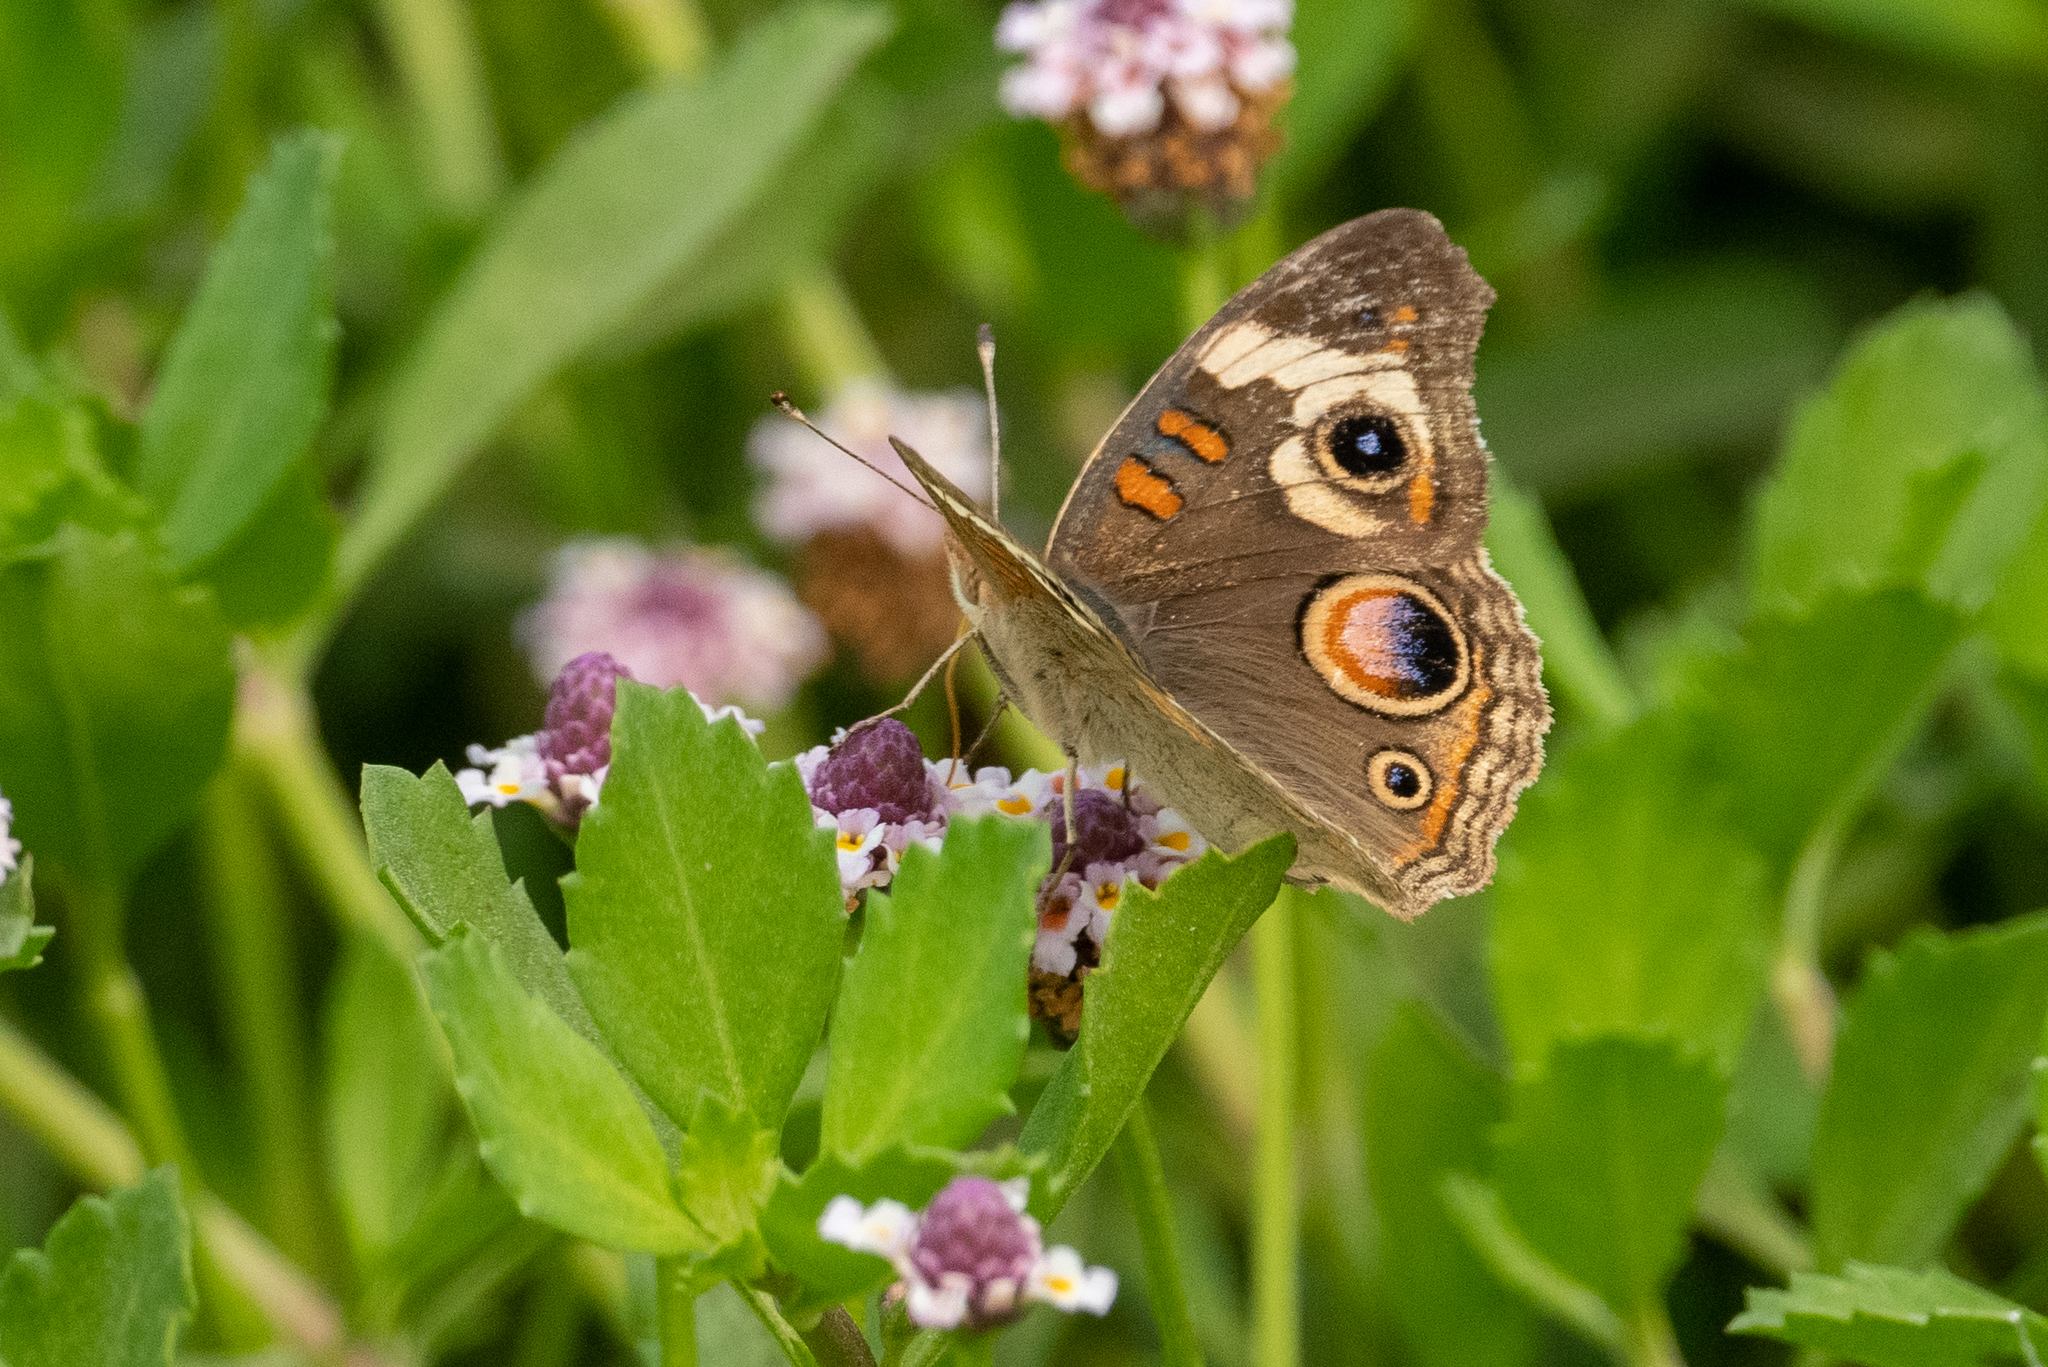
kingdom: Animalia
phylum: Arthropoda
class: Insecta
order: Lepidoptera
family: Nymphalidae
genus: Junonia
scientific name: Junonia grisea
